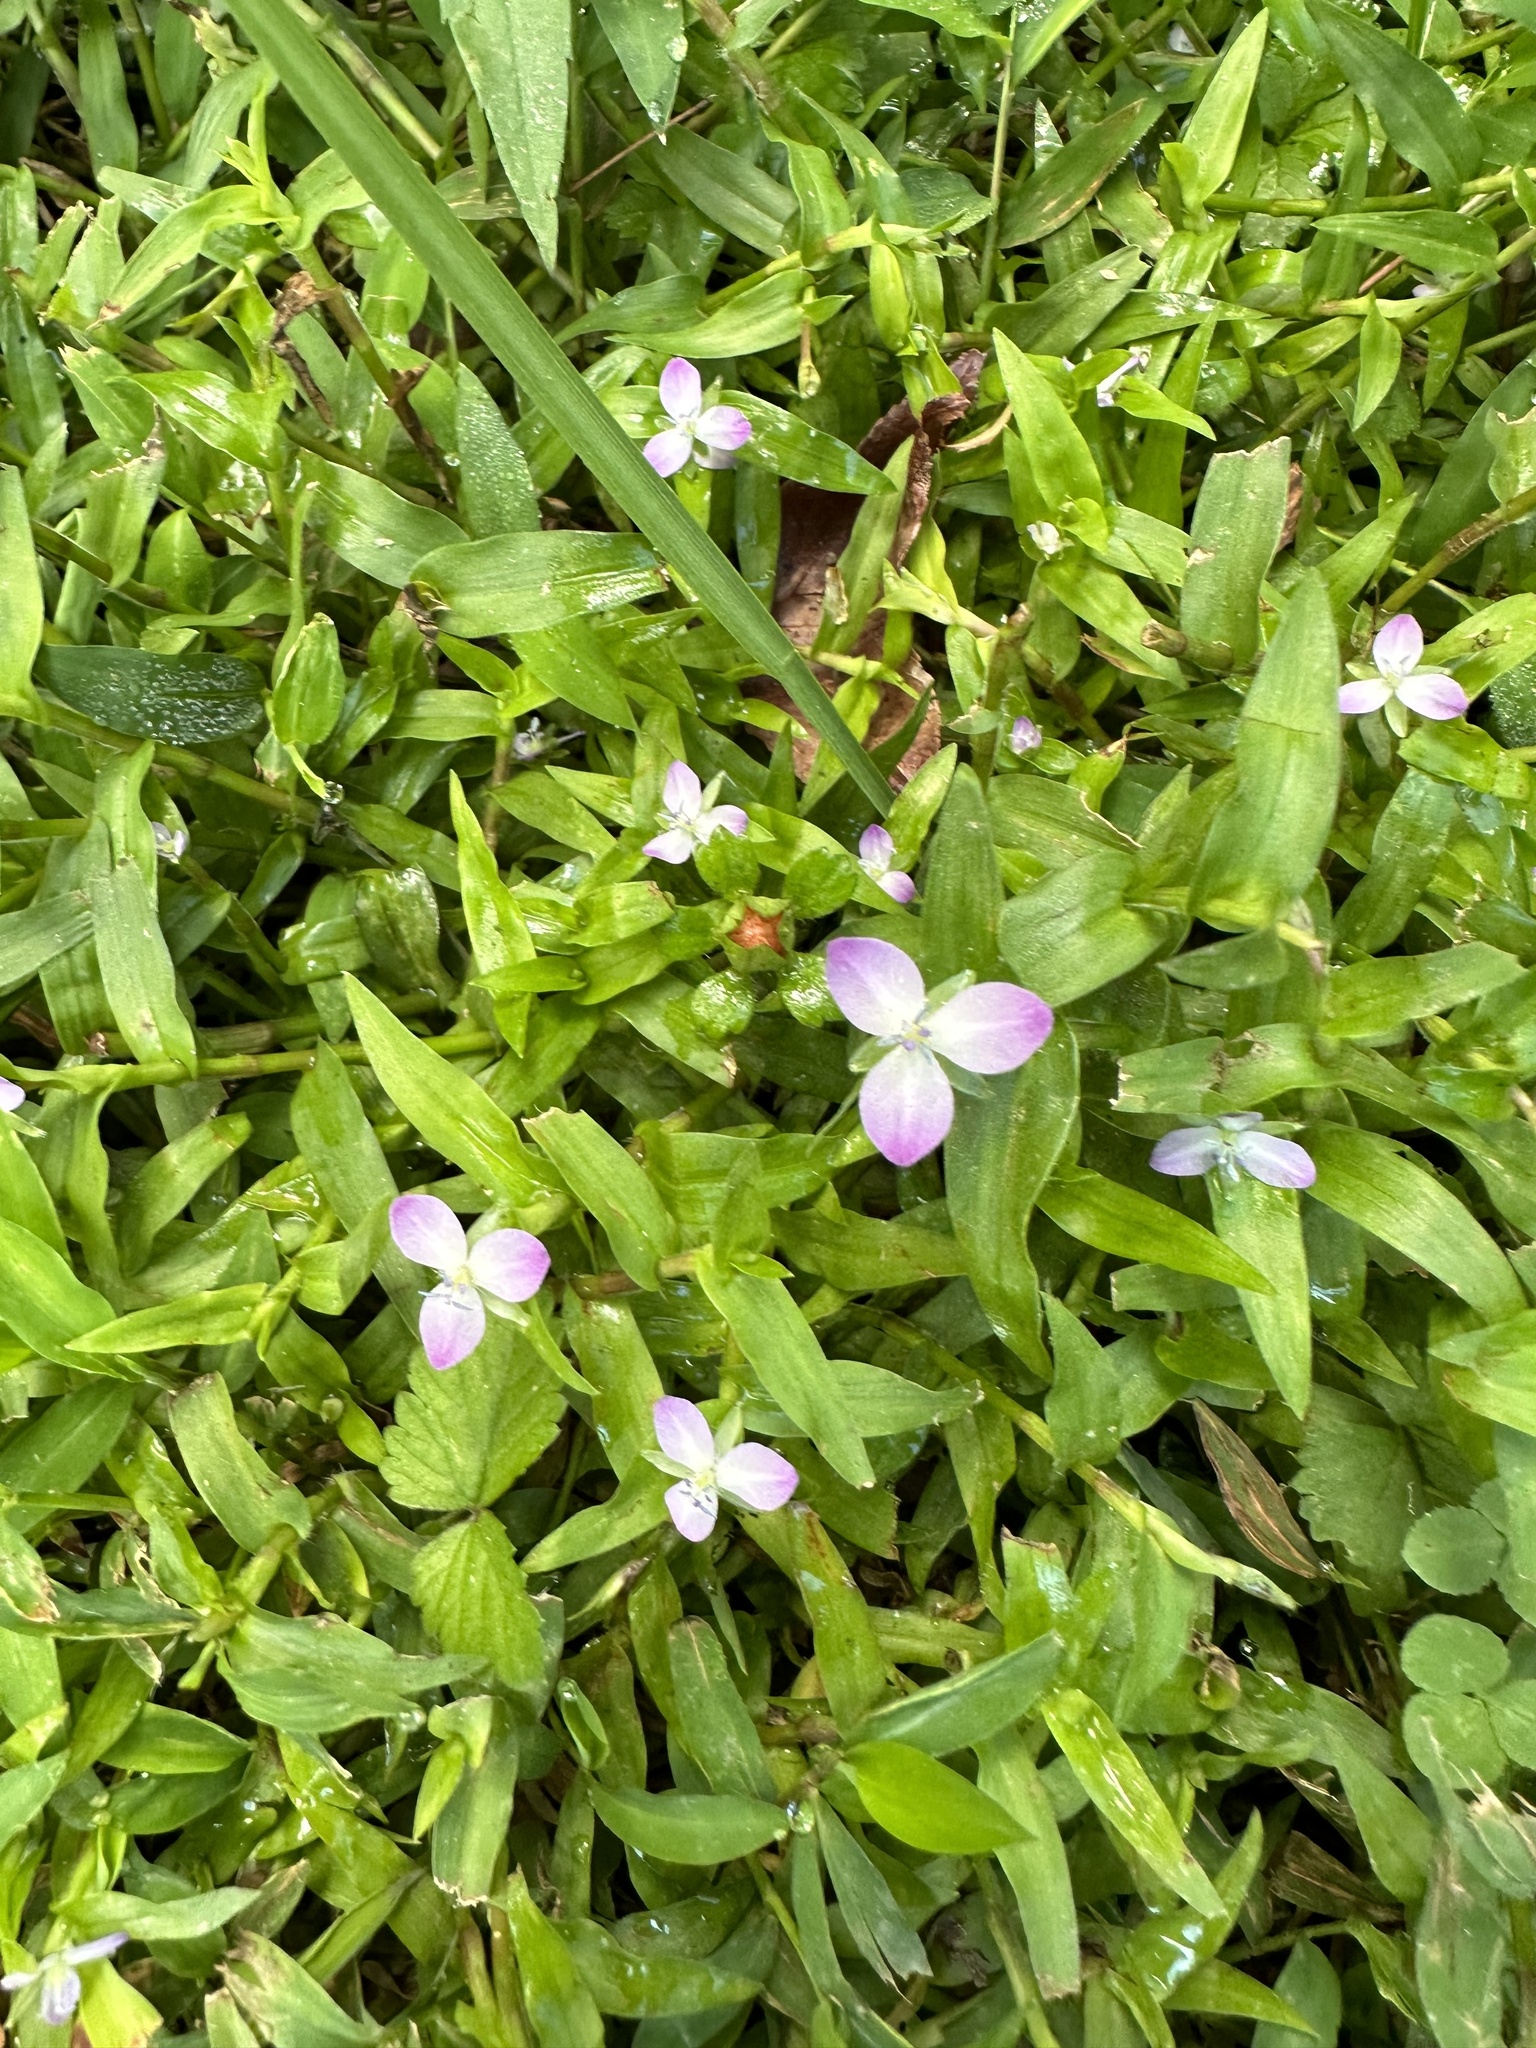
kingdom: Plantae
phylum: Tracheophyta
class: Liliopsida
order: Commelinales
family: Commelinaceae
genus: Murdannia
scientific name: Murdannia keisak
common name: Wartremoving herb
